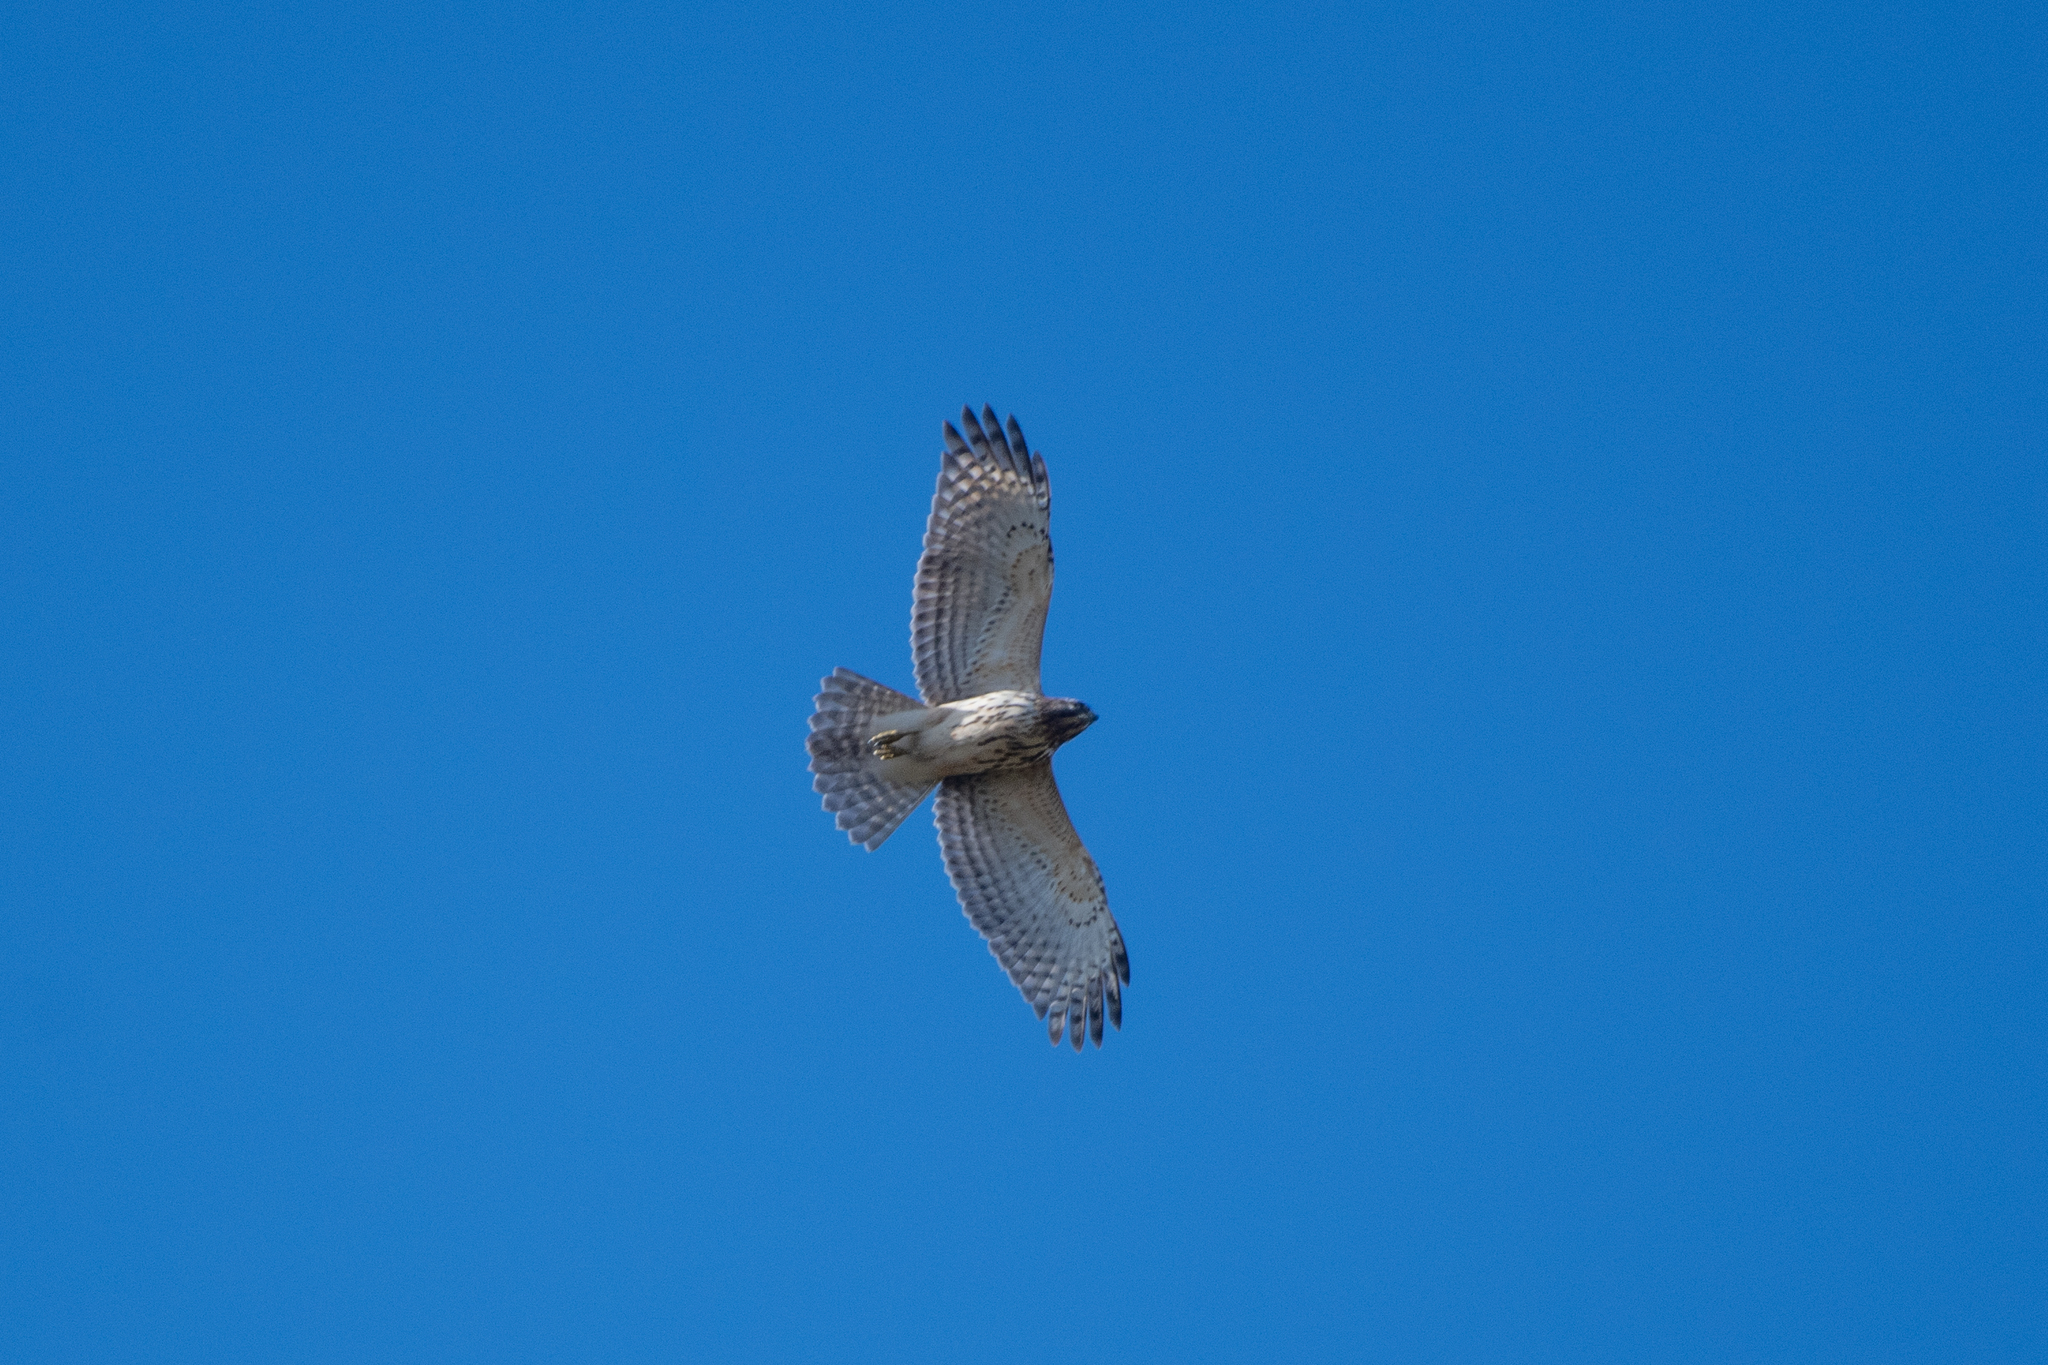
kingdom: Animalia
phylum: Chordata
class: Aves
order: Accipitriformes
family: Accipitridae
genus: Buteo
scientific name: Buteo lineatus
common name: Red-shouldered hawk
